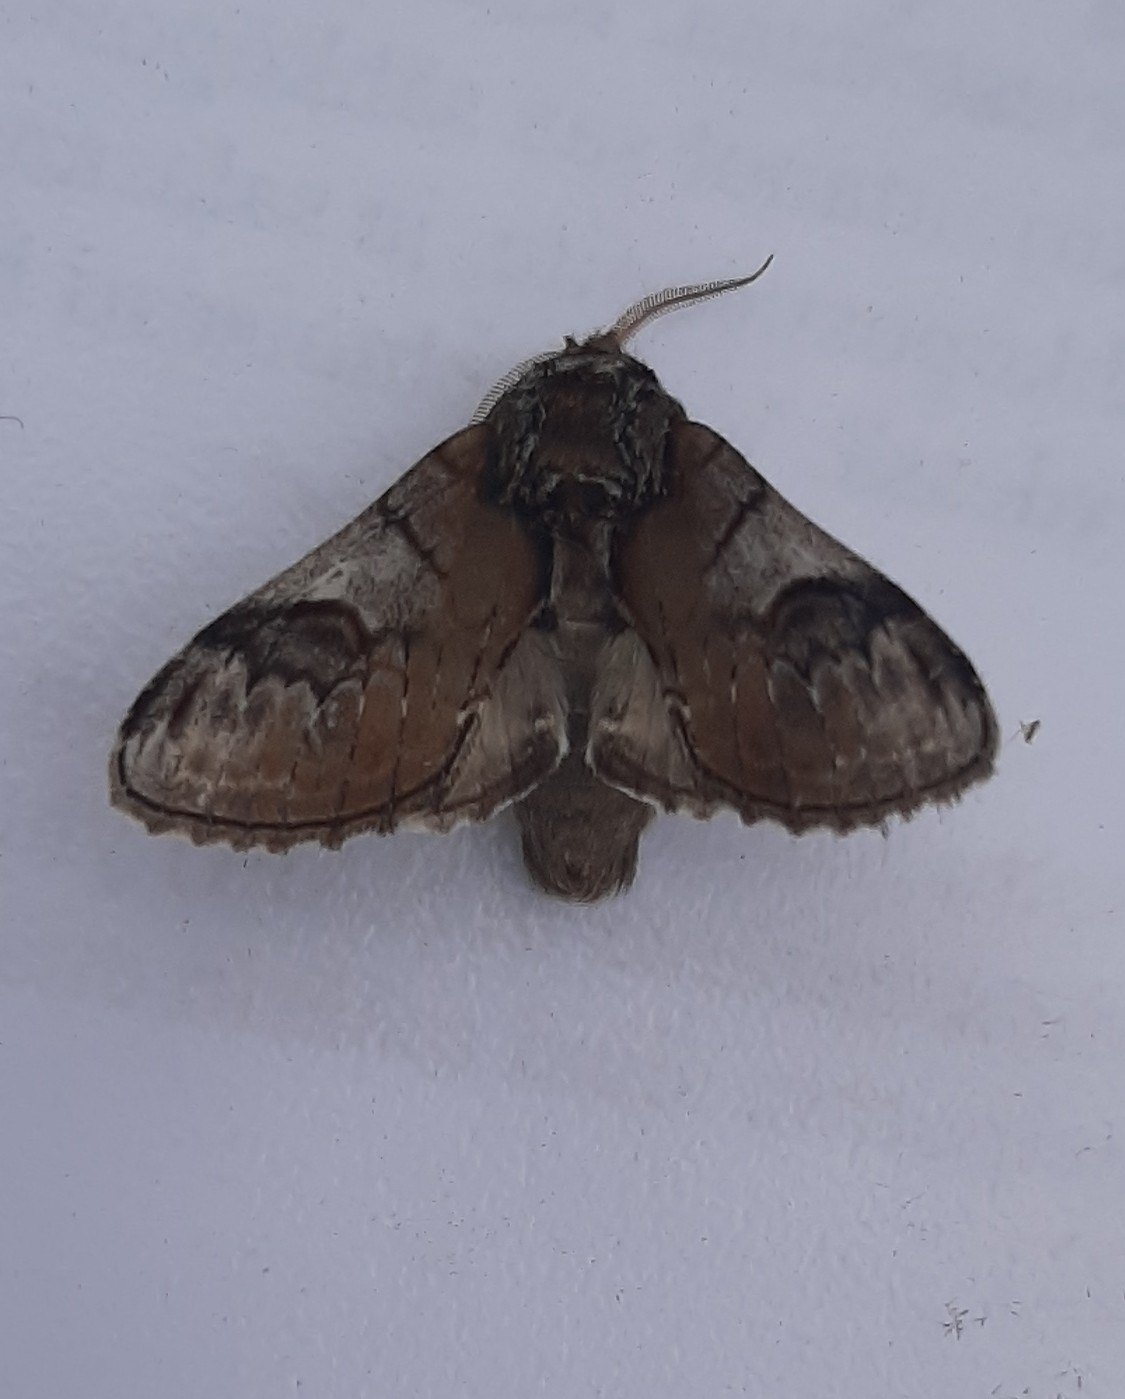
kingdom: Animalia
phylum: Arthropoda
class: Insecta
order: Lepidoptera
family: Notodontidae
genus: Notodonta
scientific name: Notodonta ziczac
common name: Pebble prominent
